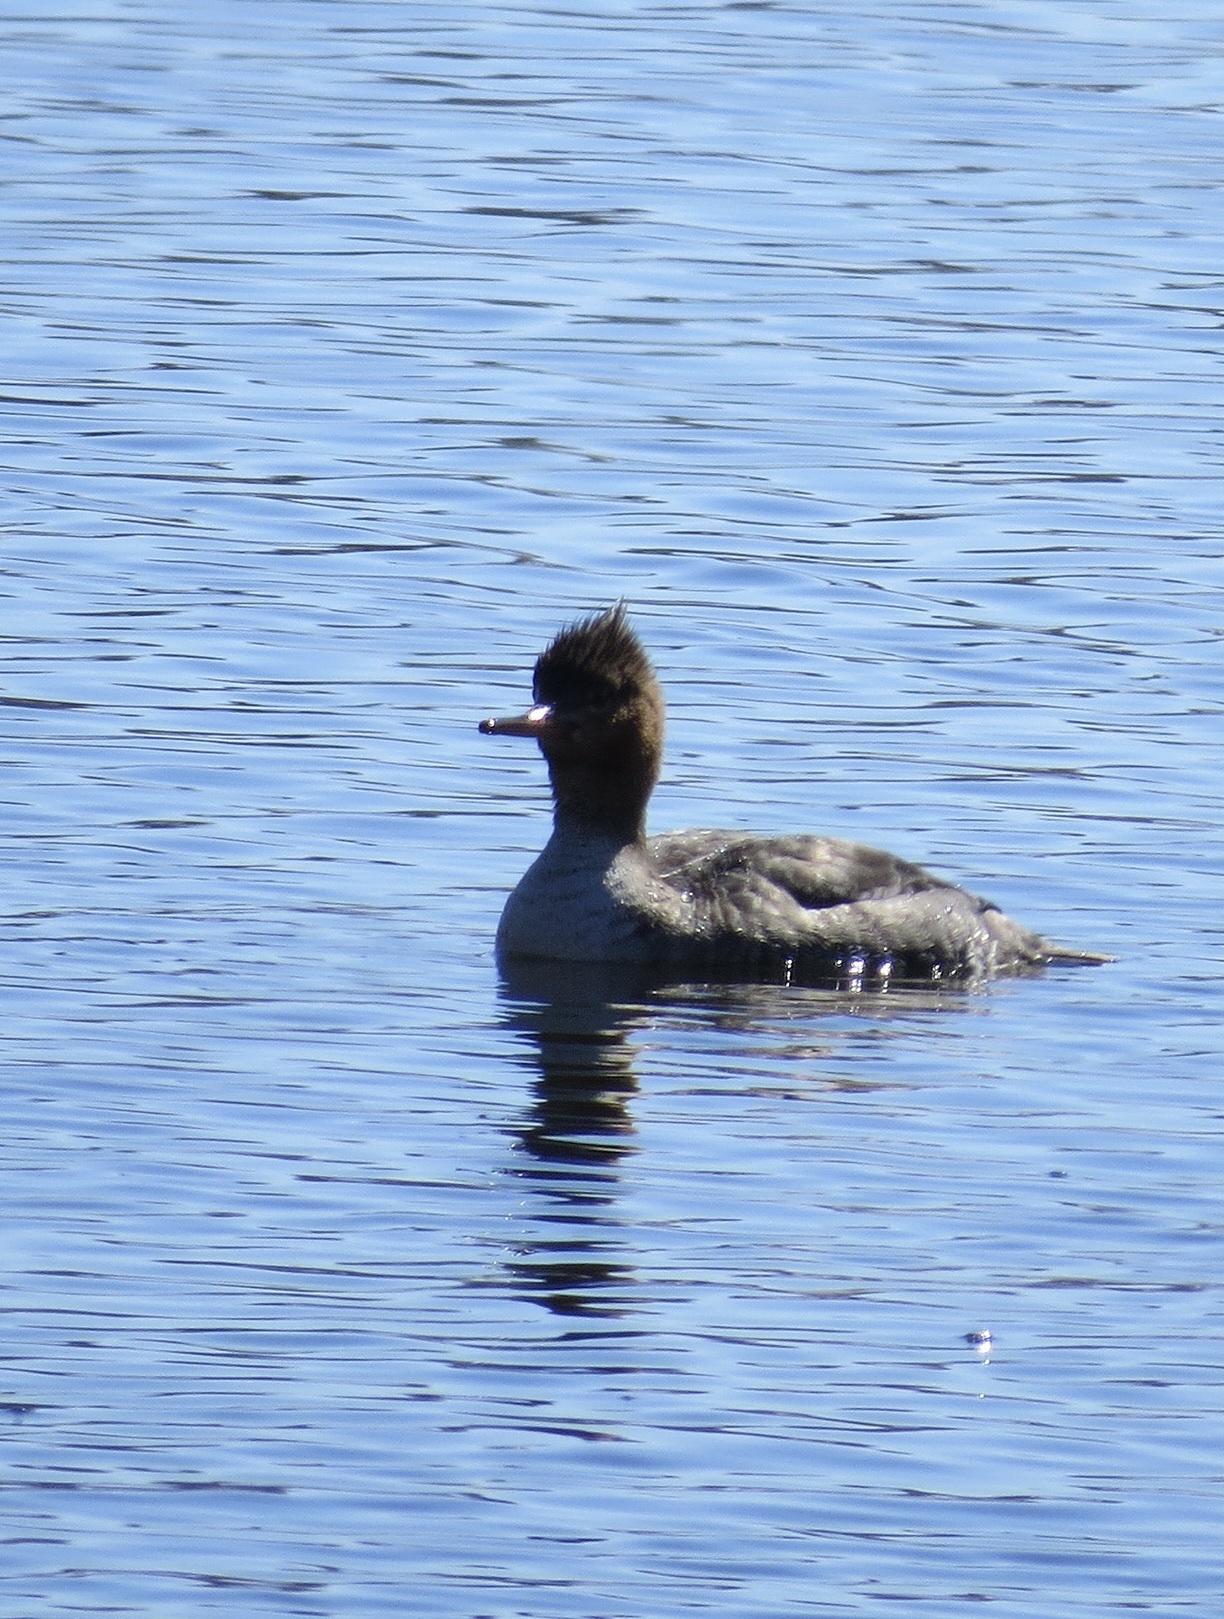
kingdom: Animalia
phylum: Chordata
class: Aves
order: Anseriformes
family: Anatidae
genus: Mergus
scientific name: Mergus serrator
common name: Red-breasted merganser
